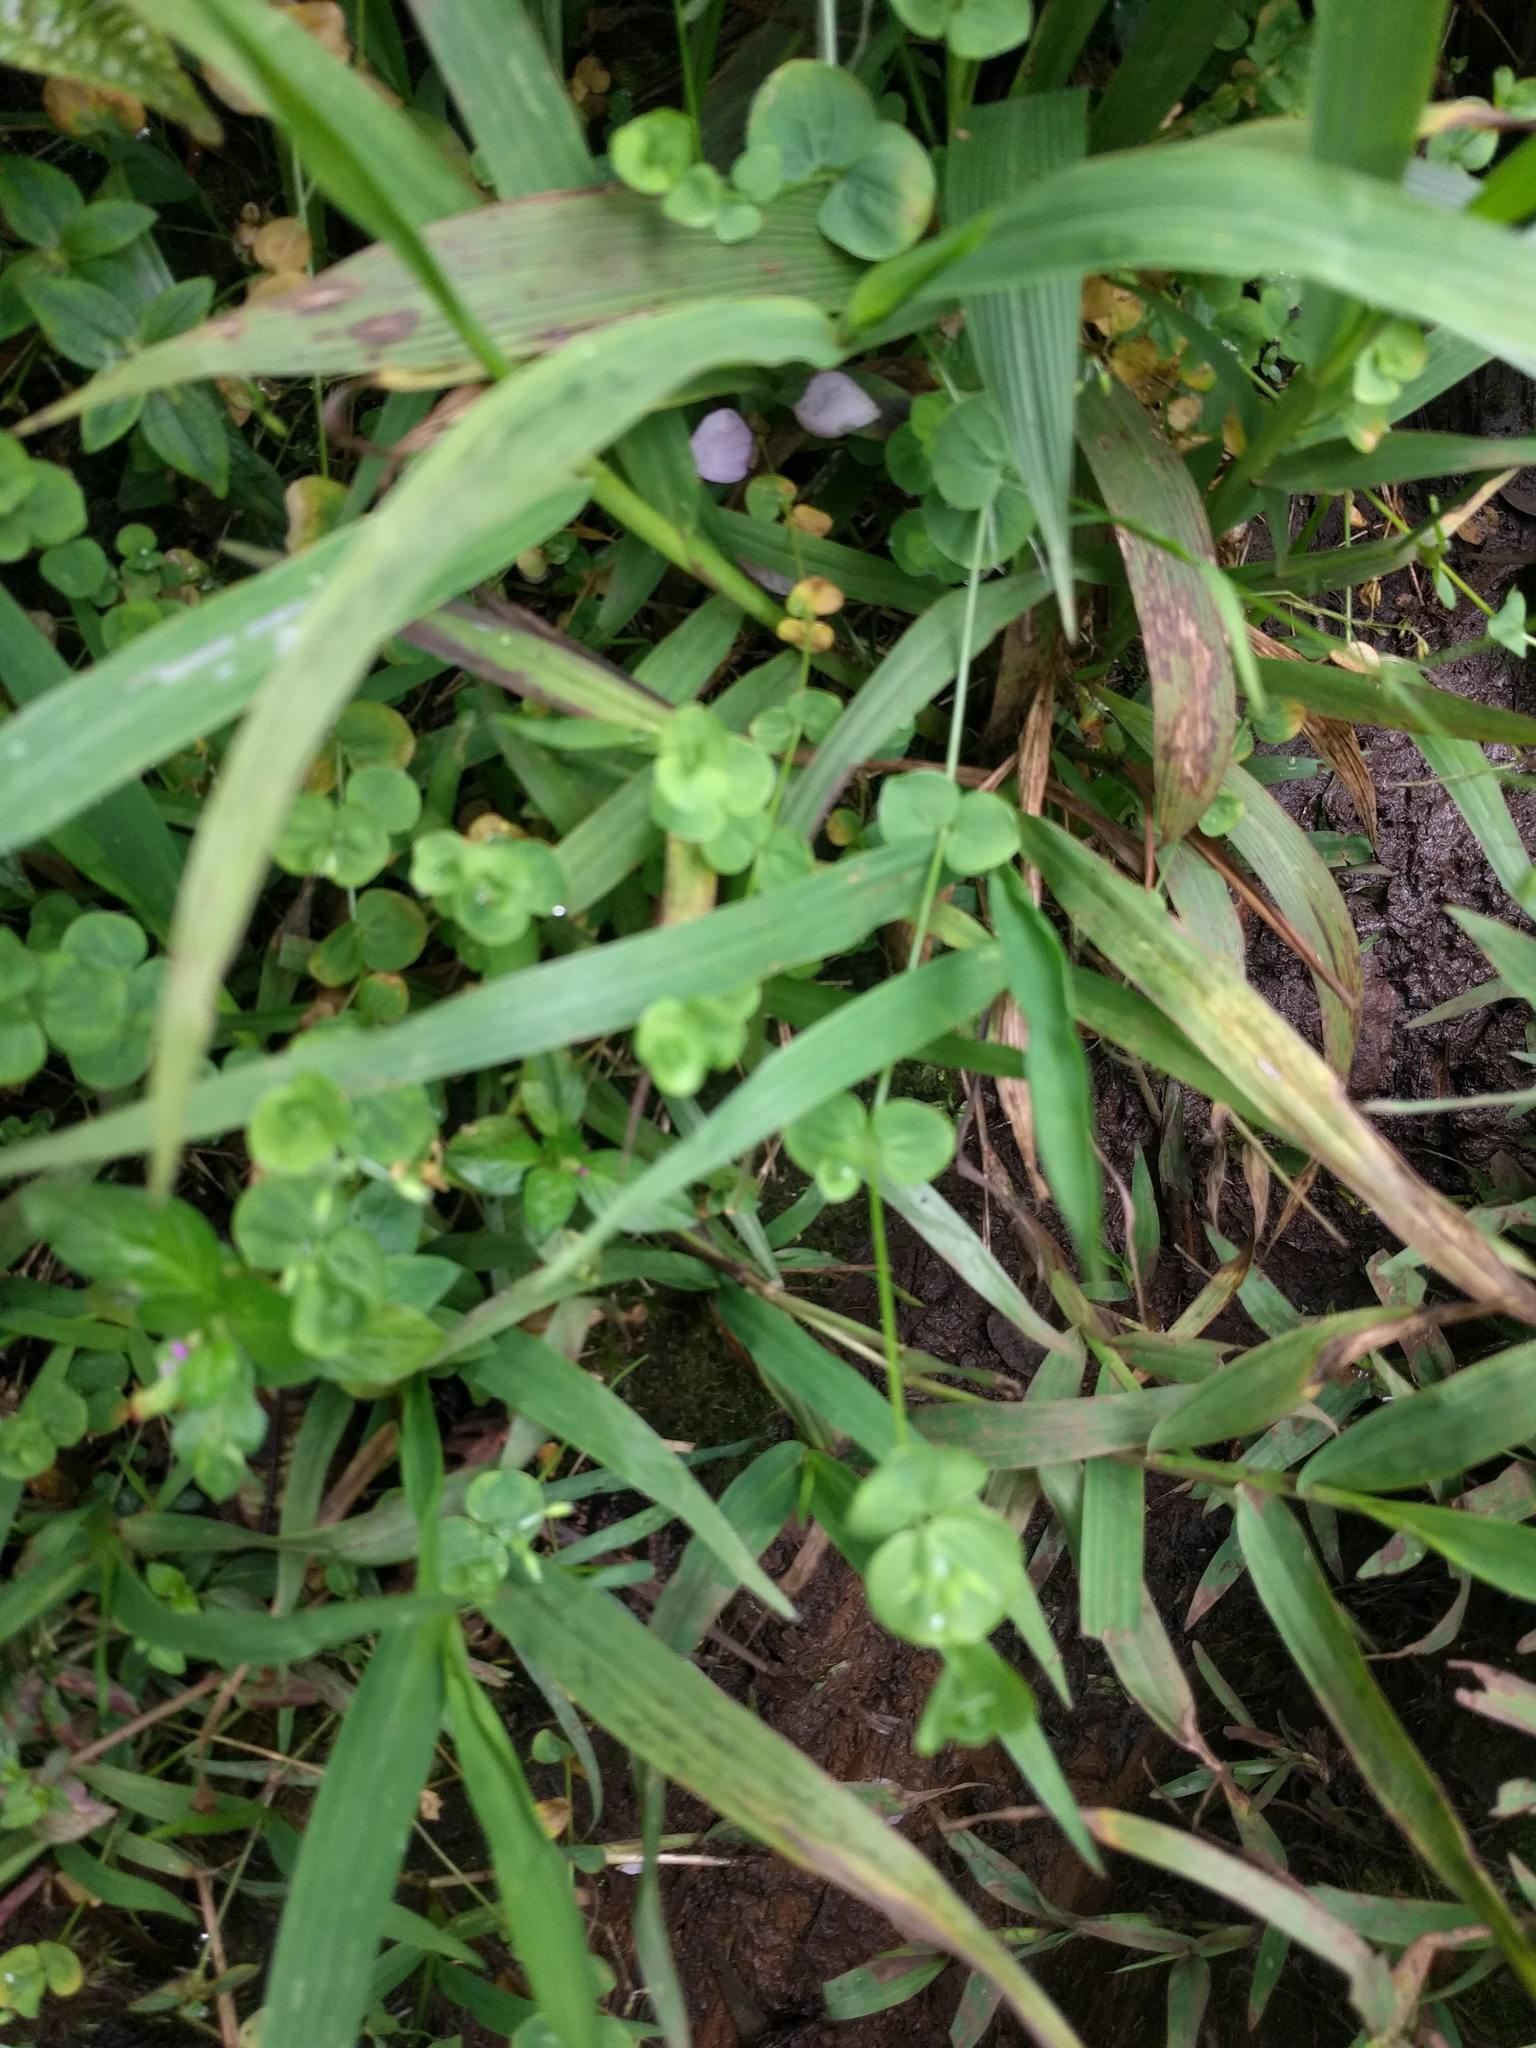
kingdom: Plantae
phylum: Tracheophyta
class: Magnoliopsida
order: Caryophyllales
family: Caryophyllaceae
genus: Drymaria
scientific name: Drymaria cordata
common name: Whitesnow
